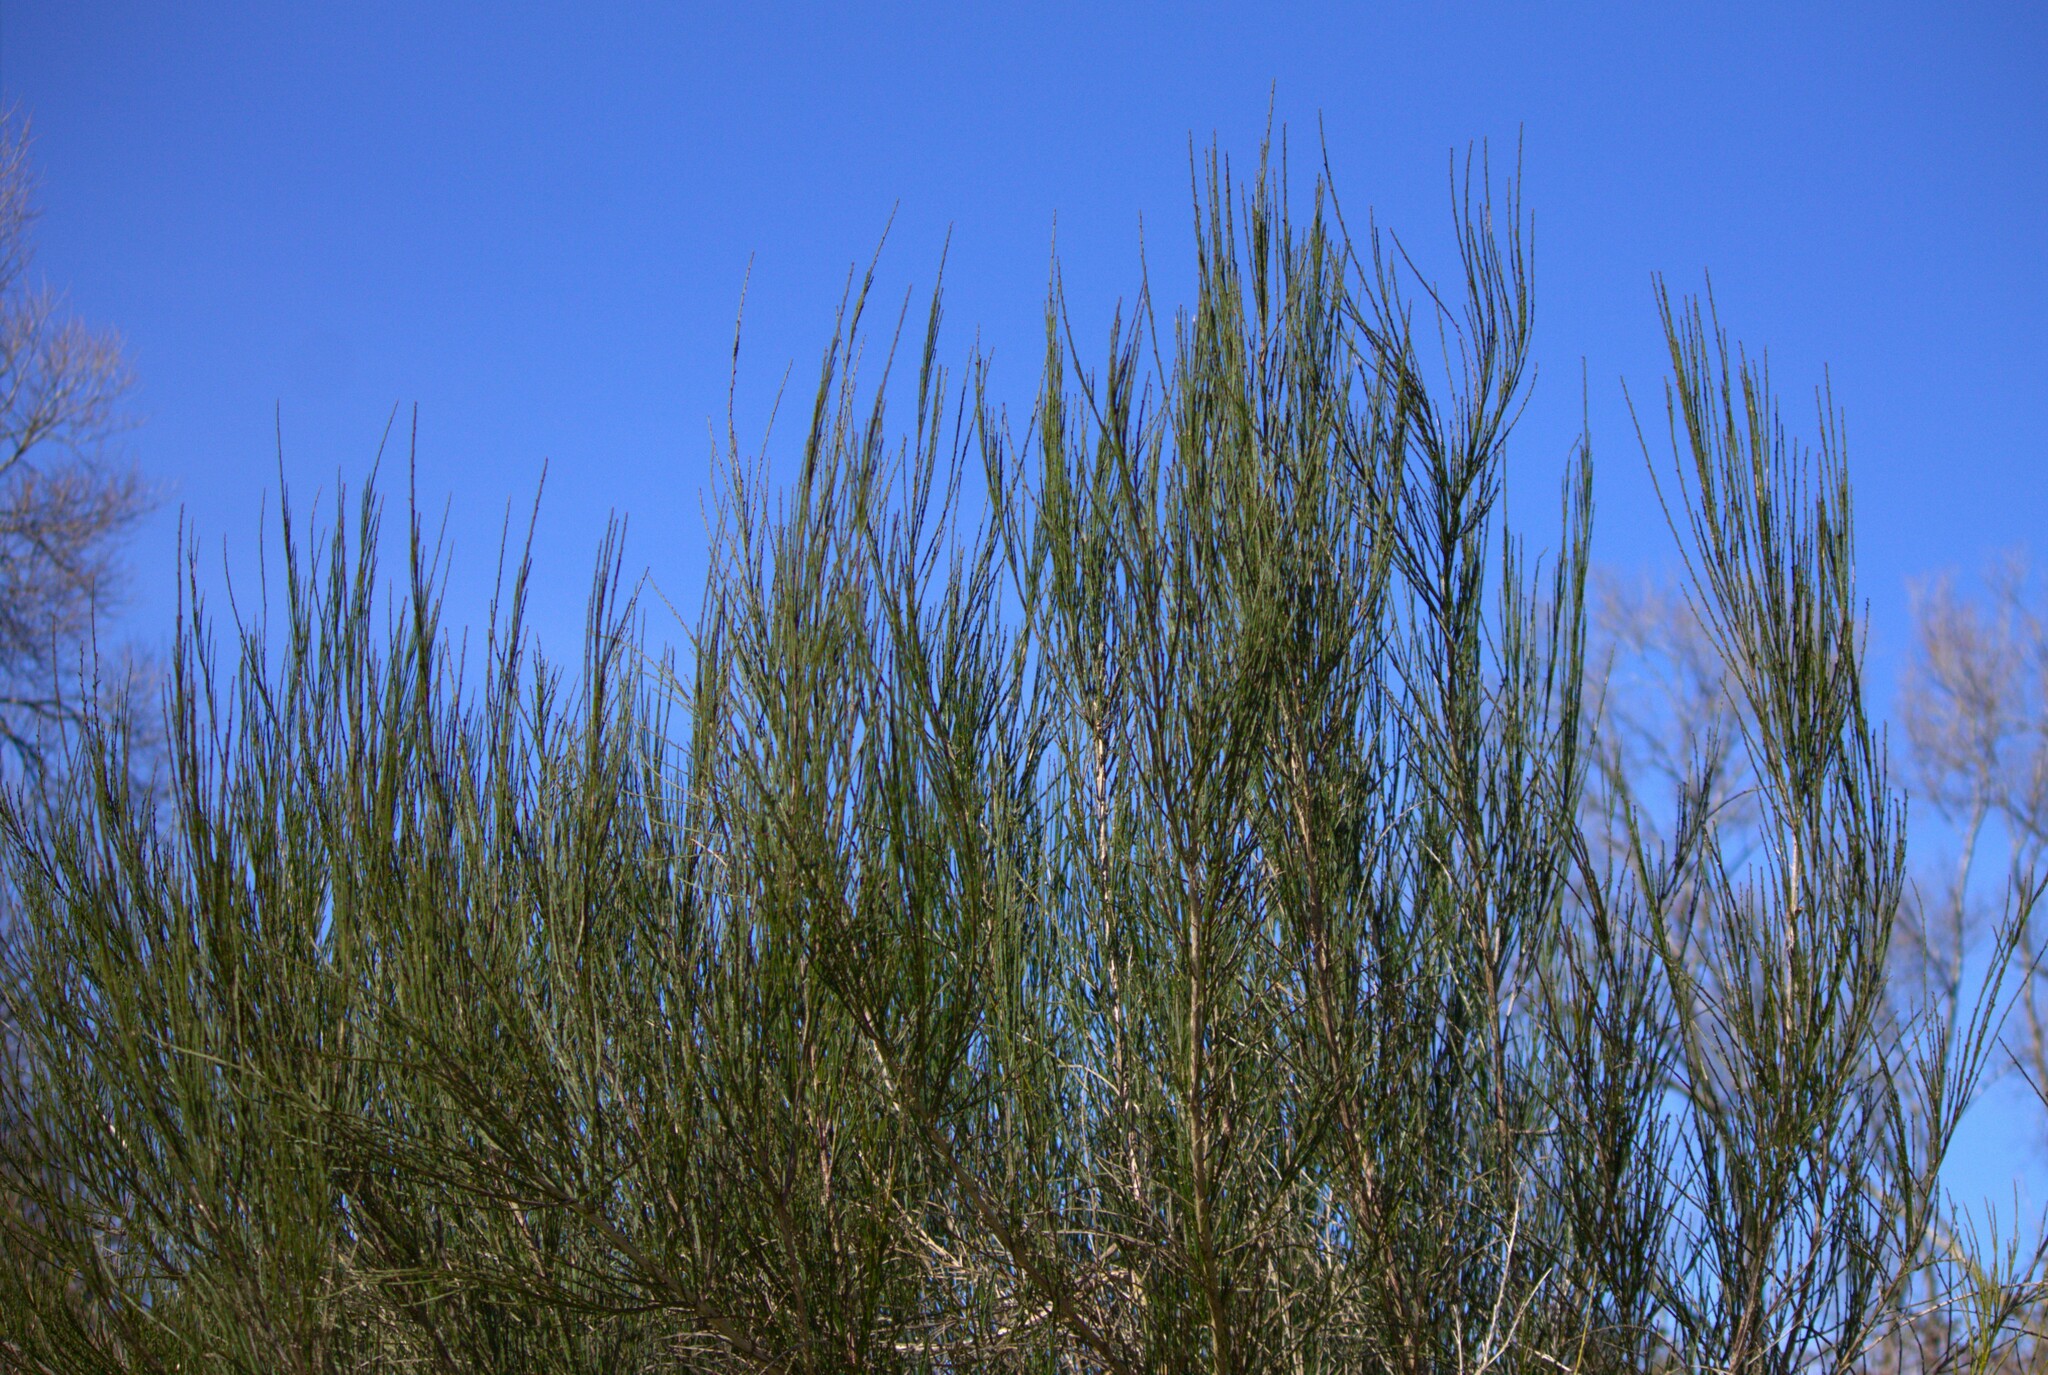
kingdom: Plantae
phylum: Tracheophyta
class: Magnoliopsida
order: Fabales
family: Fabaceae
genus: Cytisus
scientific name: Cytisus scoparius
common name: Scotch broom
